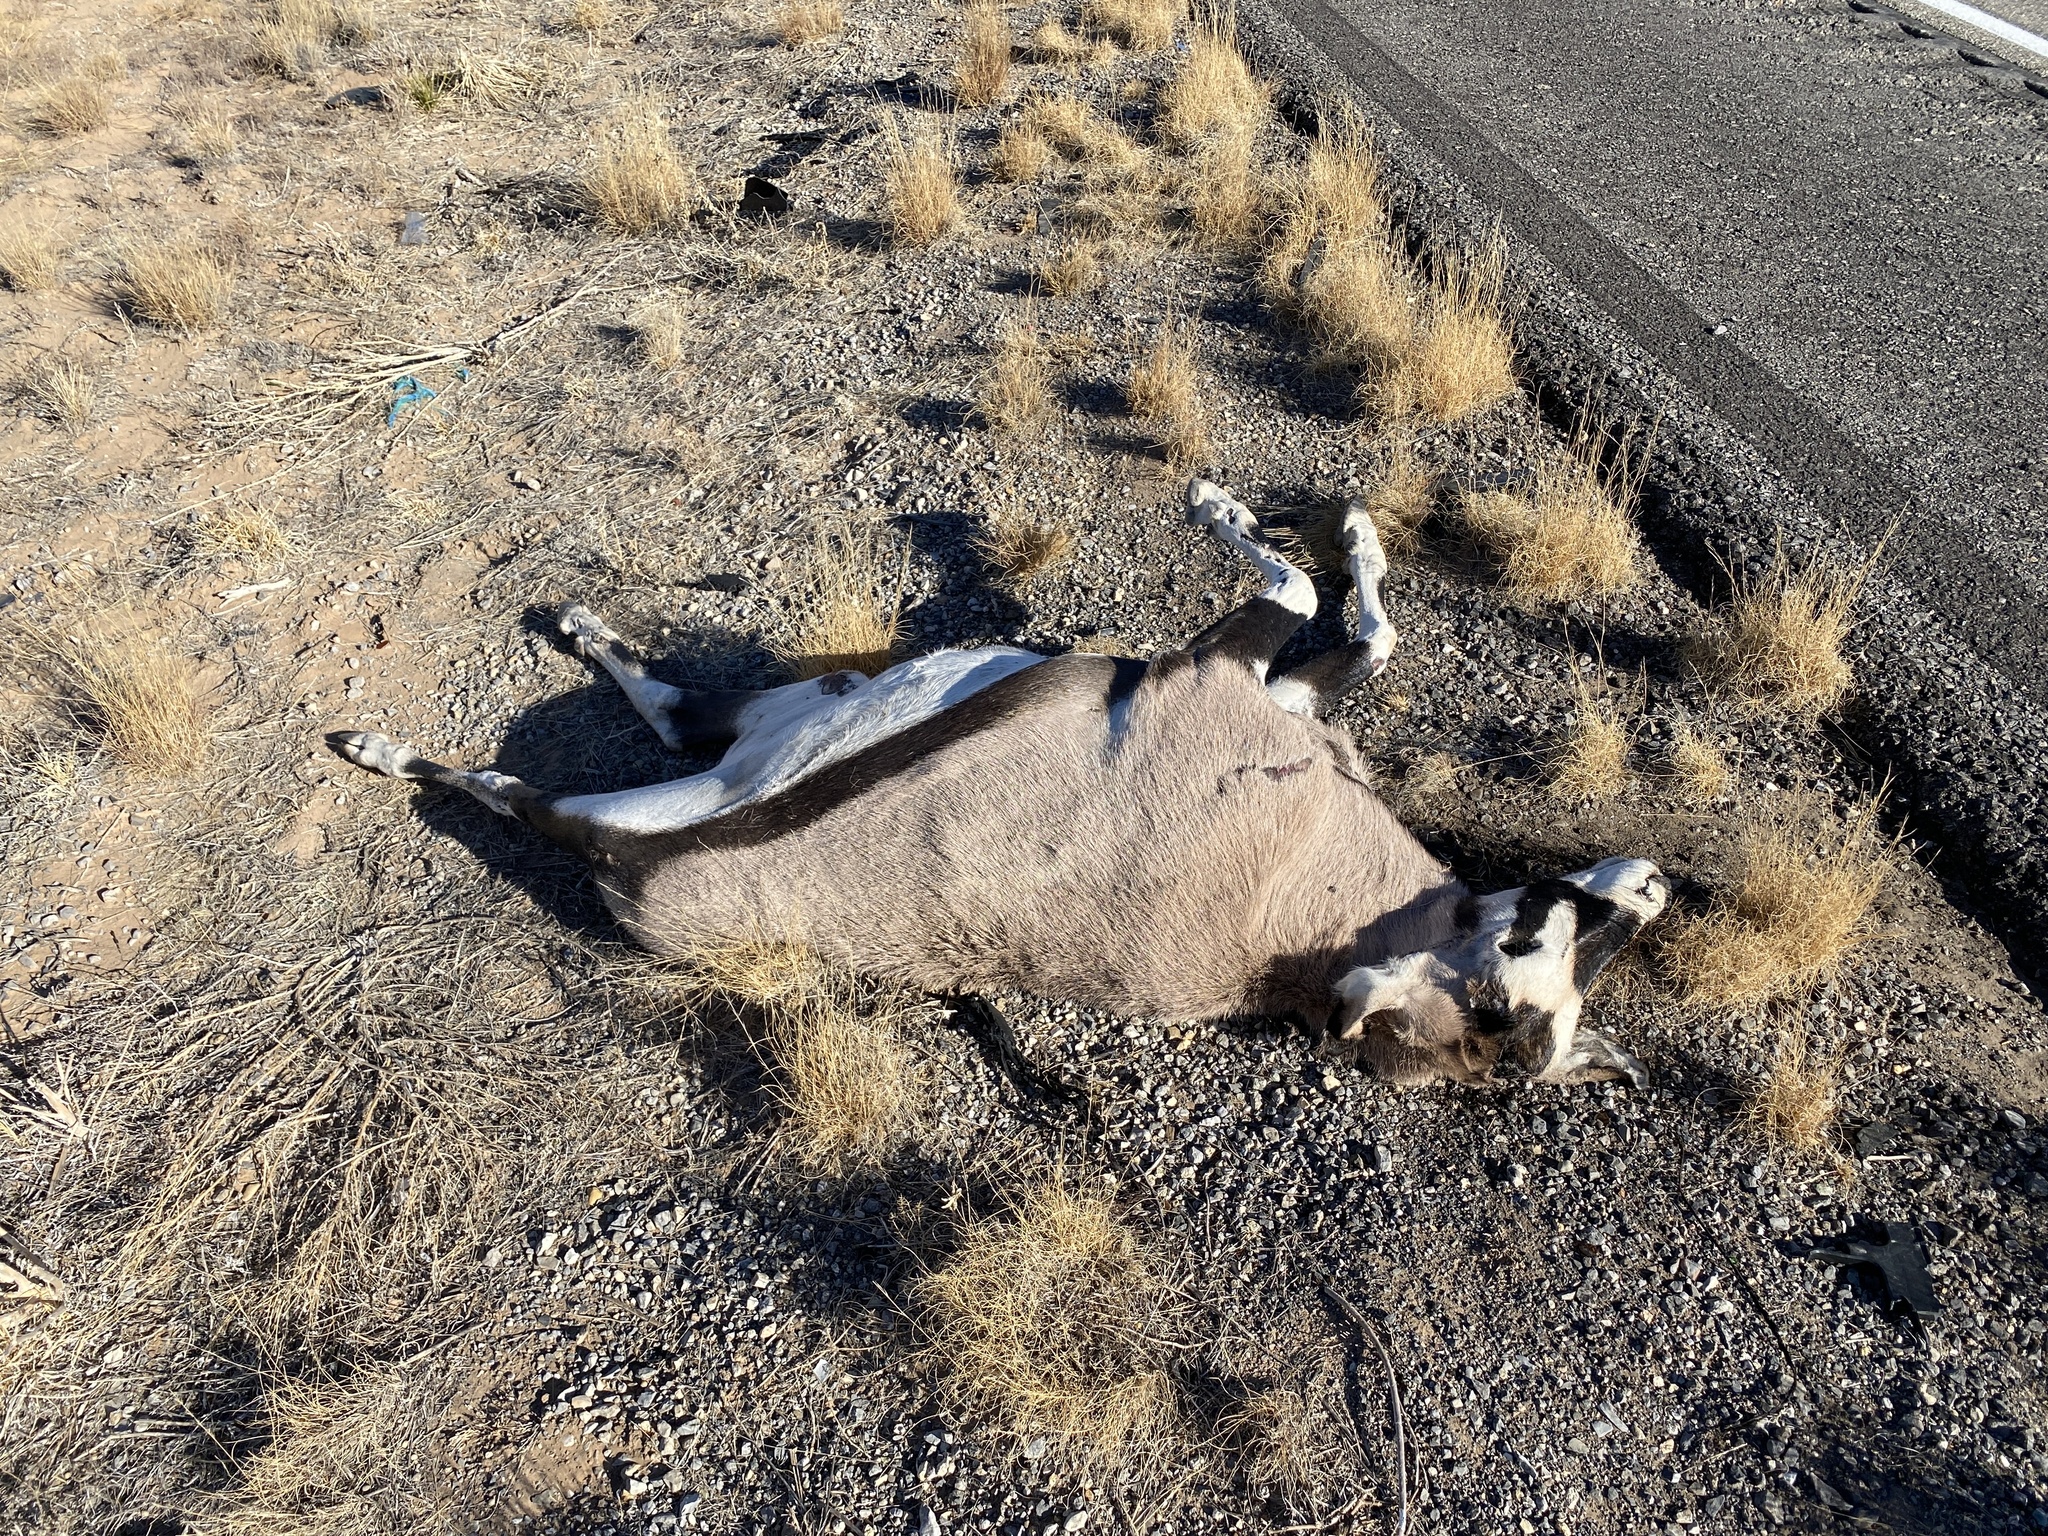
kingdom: Animalia
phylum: Chordata
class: Mammalia
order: Artiodactyla
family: Bovidae
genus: Oryx
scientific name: Oryx gazella
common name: Gemsbok
